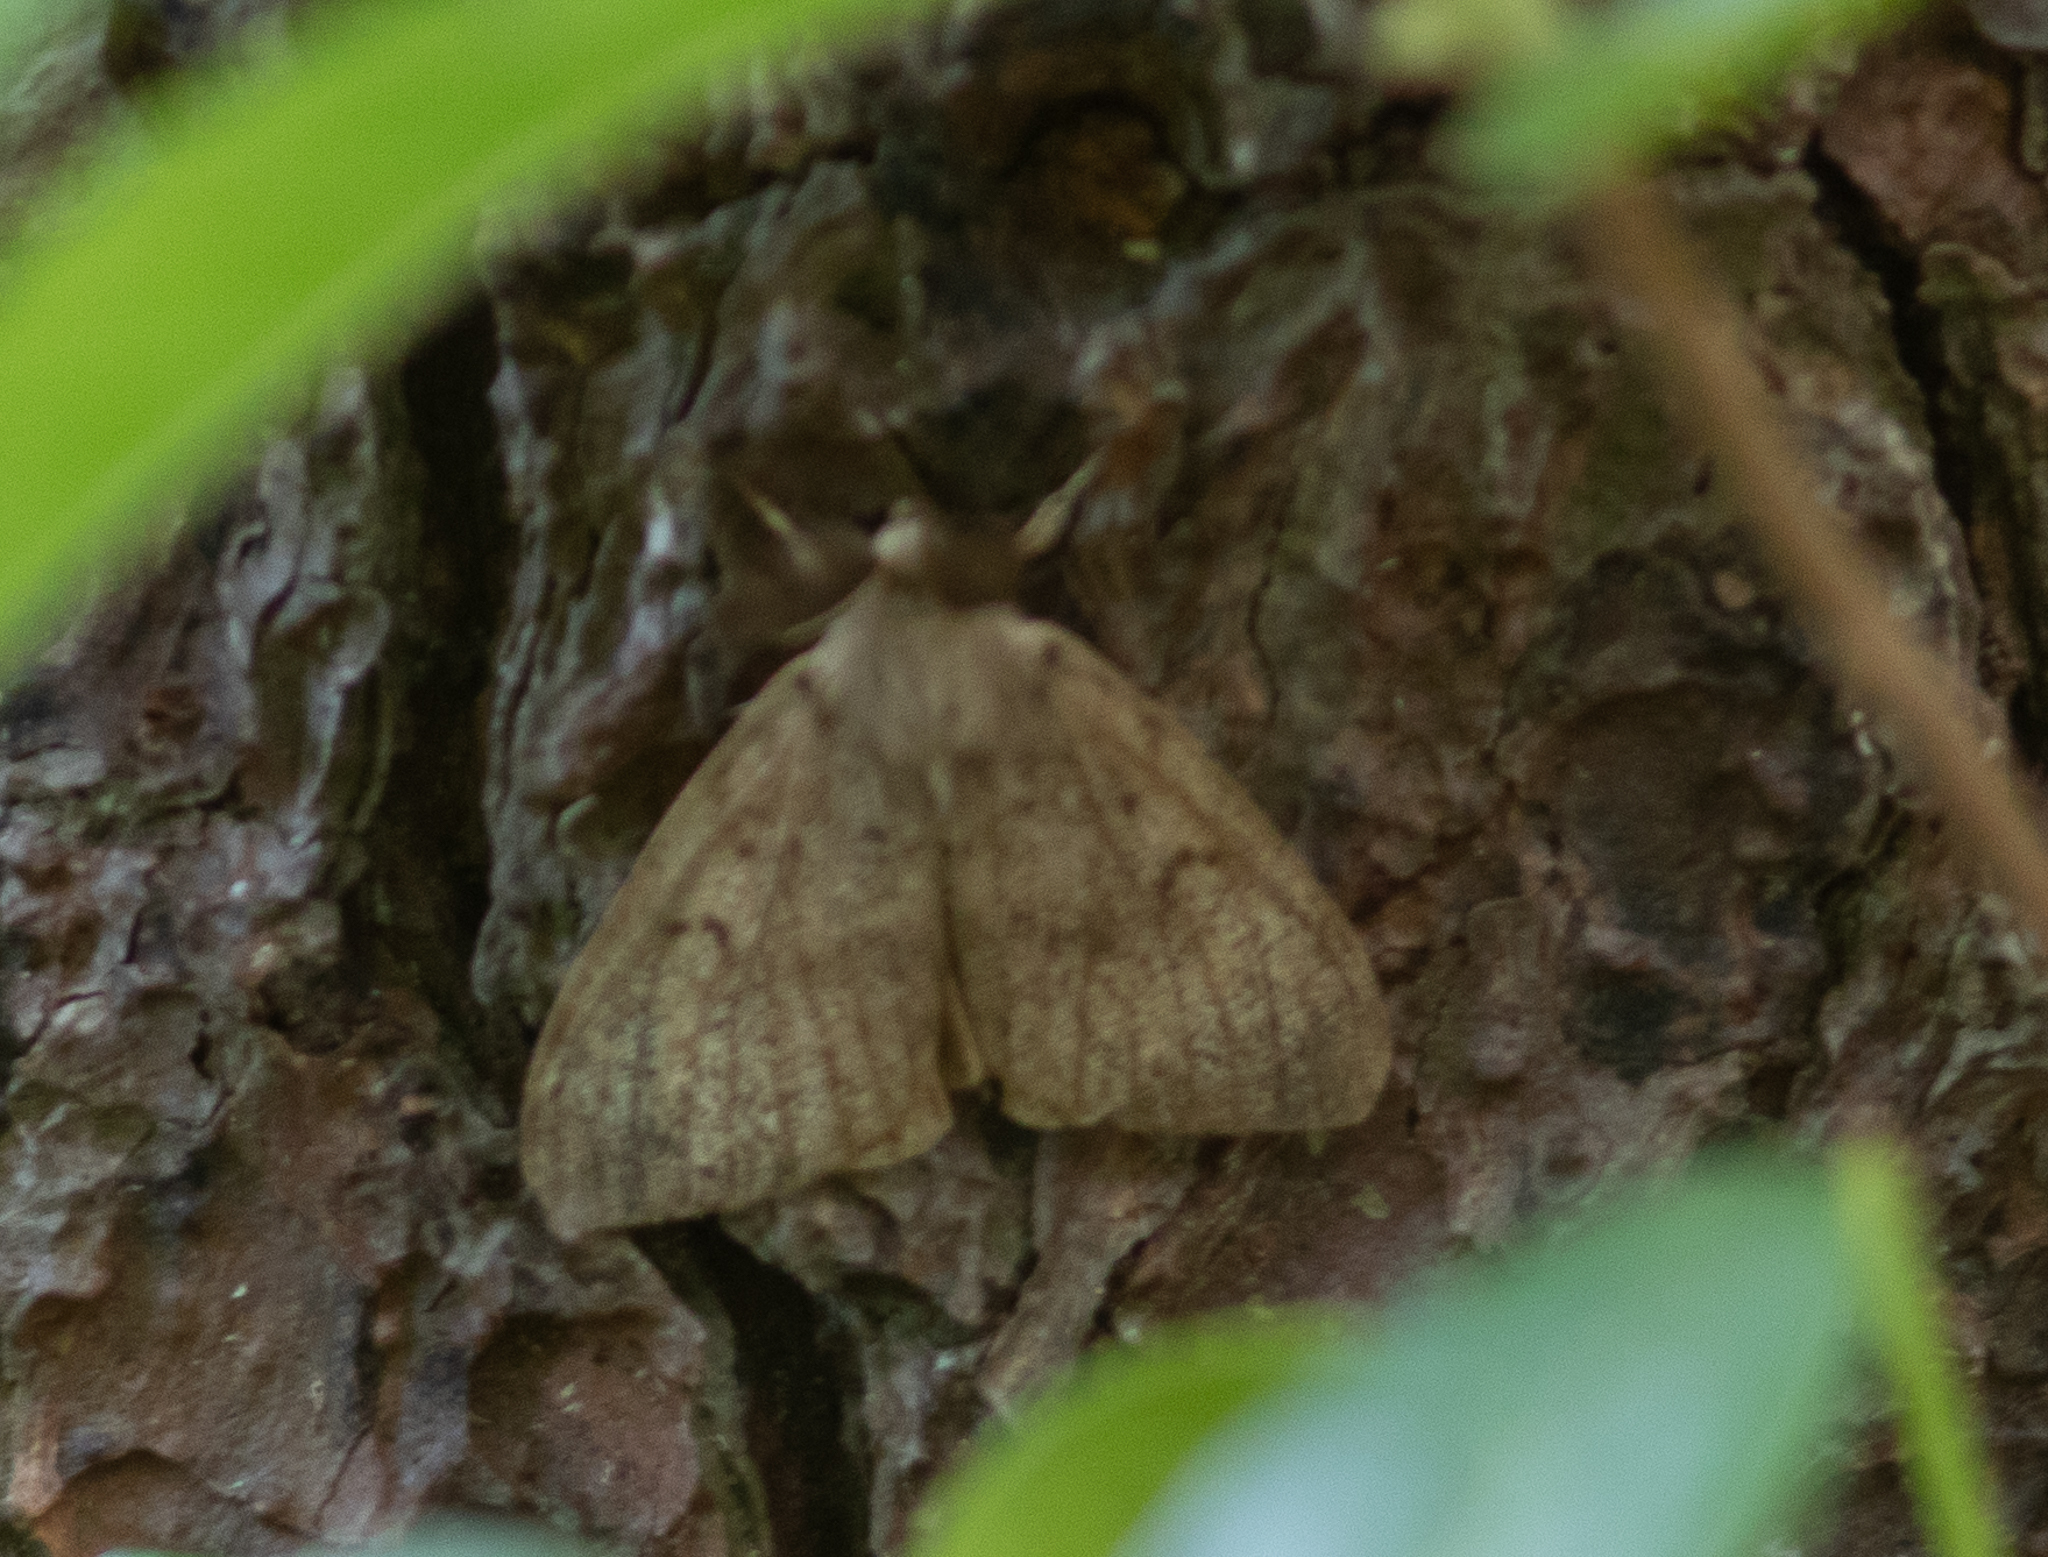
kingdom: Animalia
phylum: Arthropoda
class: Insecta
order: Lepidoptera
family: Erebidae
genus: Lymantria
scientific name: Lymantria dispar
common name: Gypsy moth
